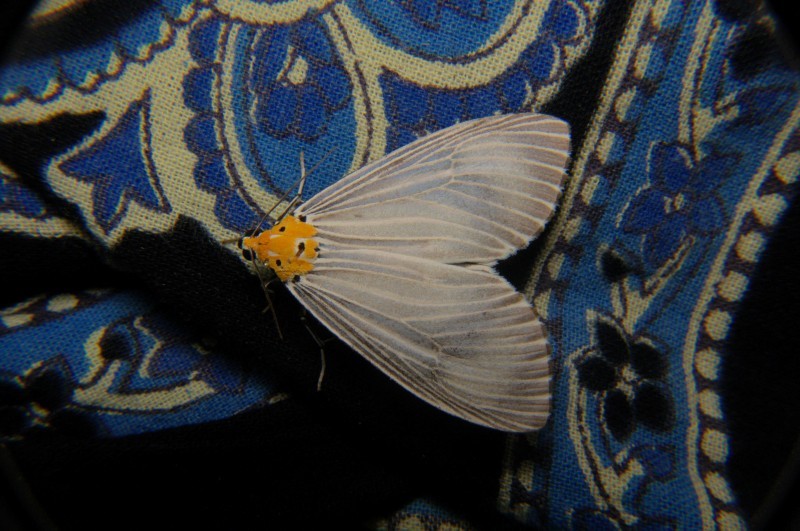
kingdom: Animalia
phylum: Arthropoda
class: Insecta
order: Lepidoptera
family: Erebidae
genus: Neochera
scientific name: Neochera dominia
